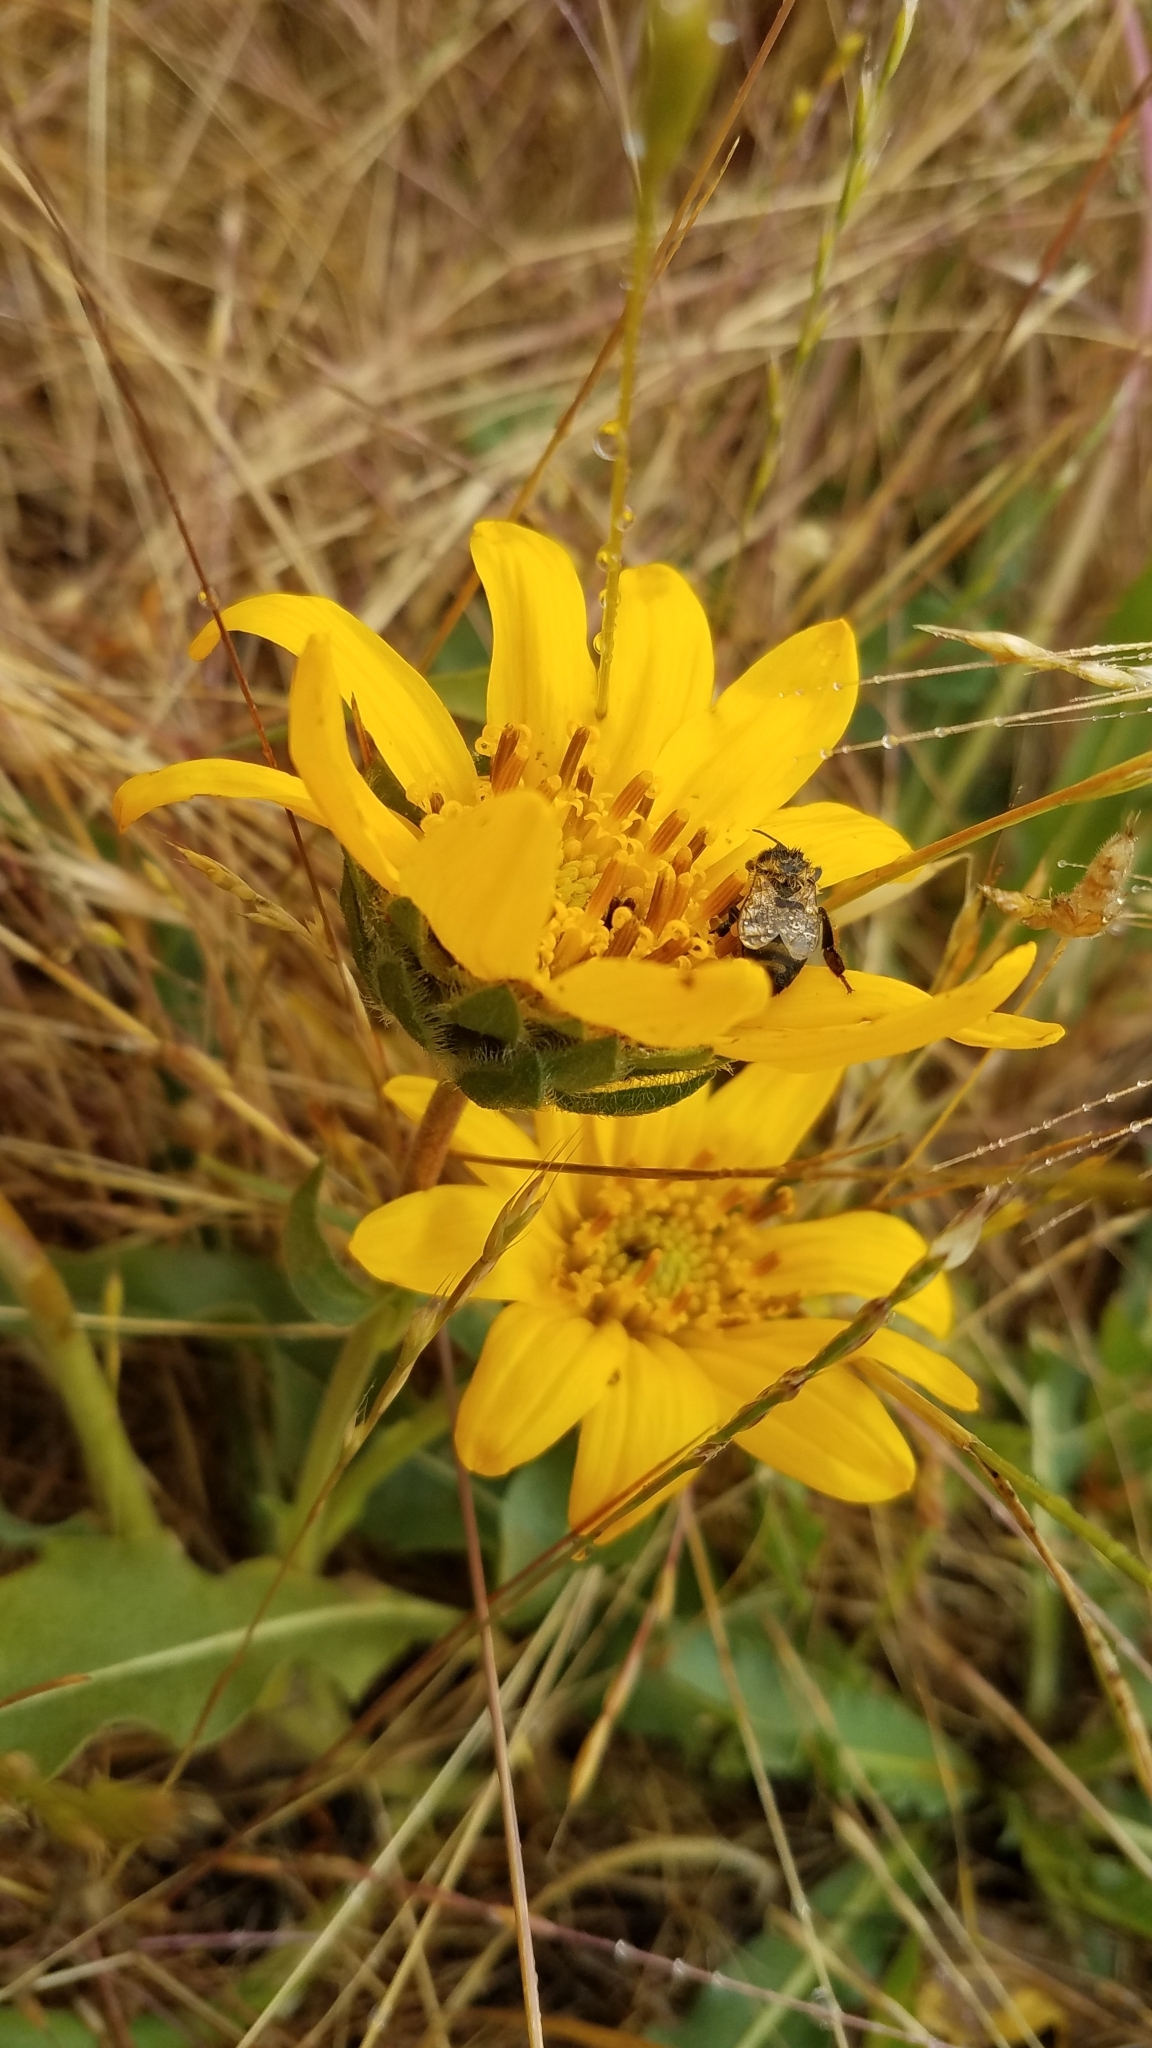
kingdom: Plantae
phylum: Tracheophyta
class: Magnoliopsida
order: Asterales
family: Asteraceae
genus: Wyethia
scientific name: Wyethia angustifolia
